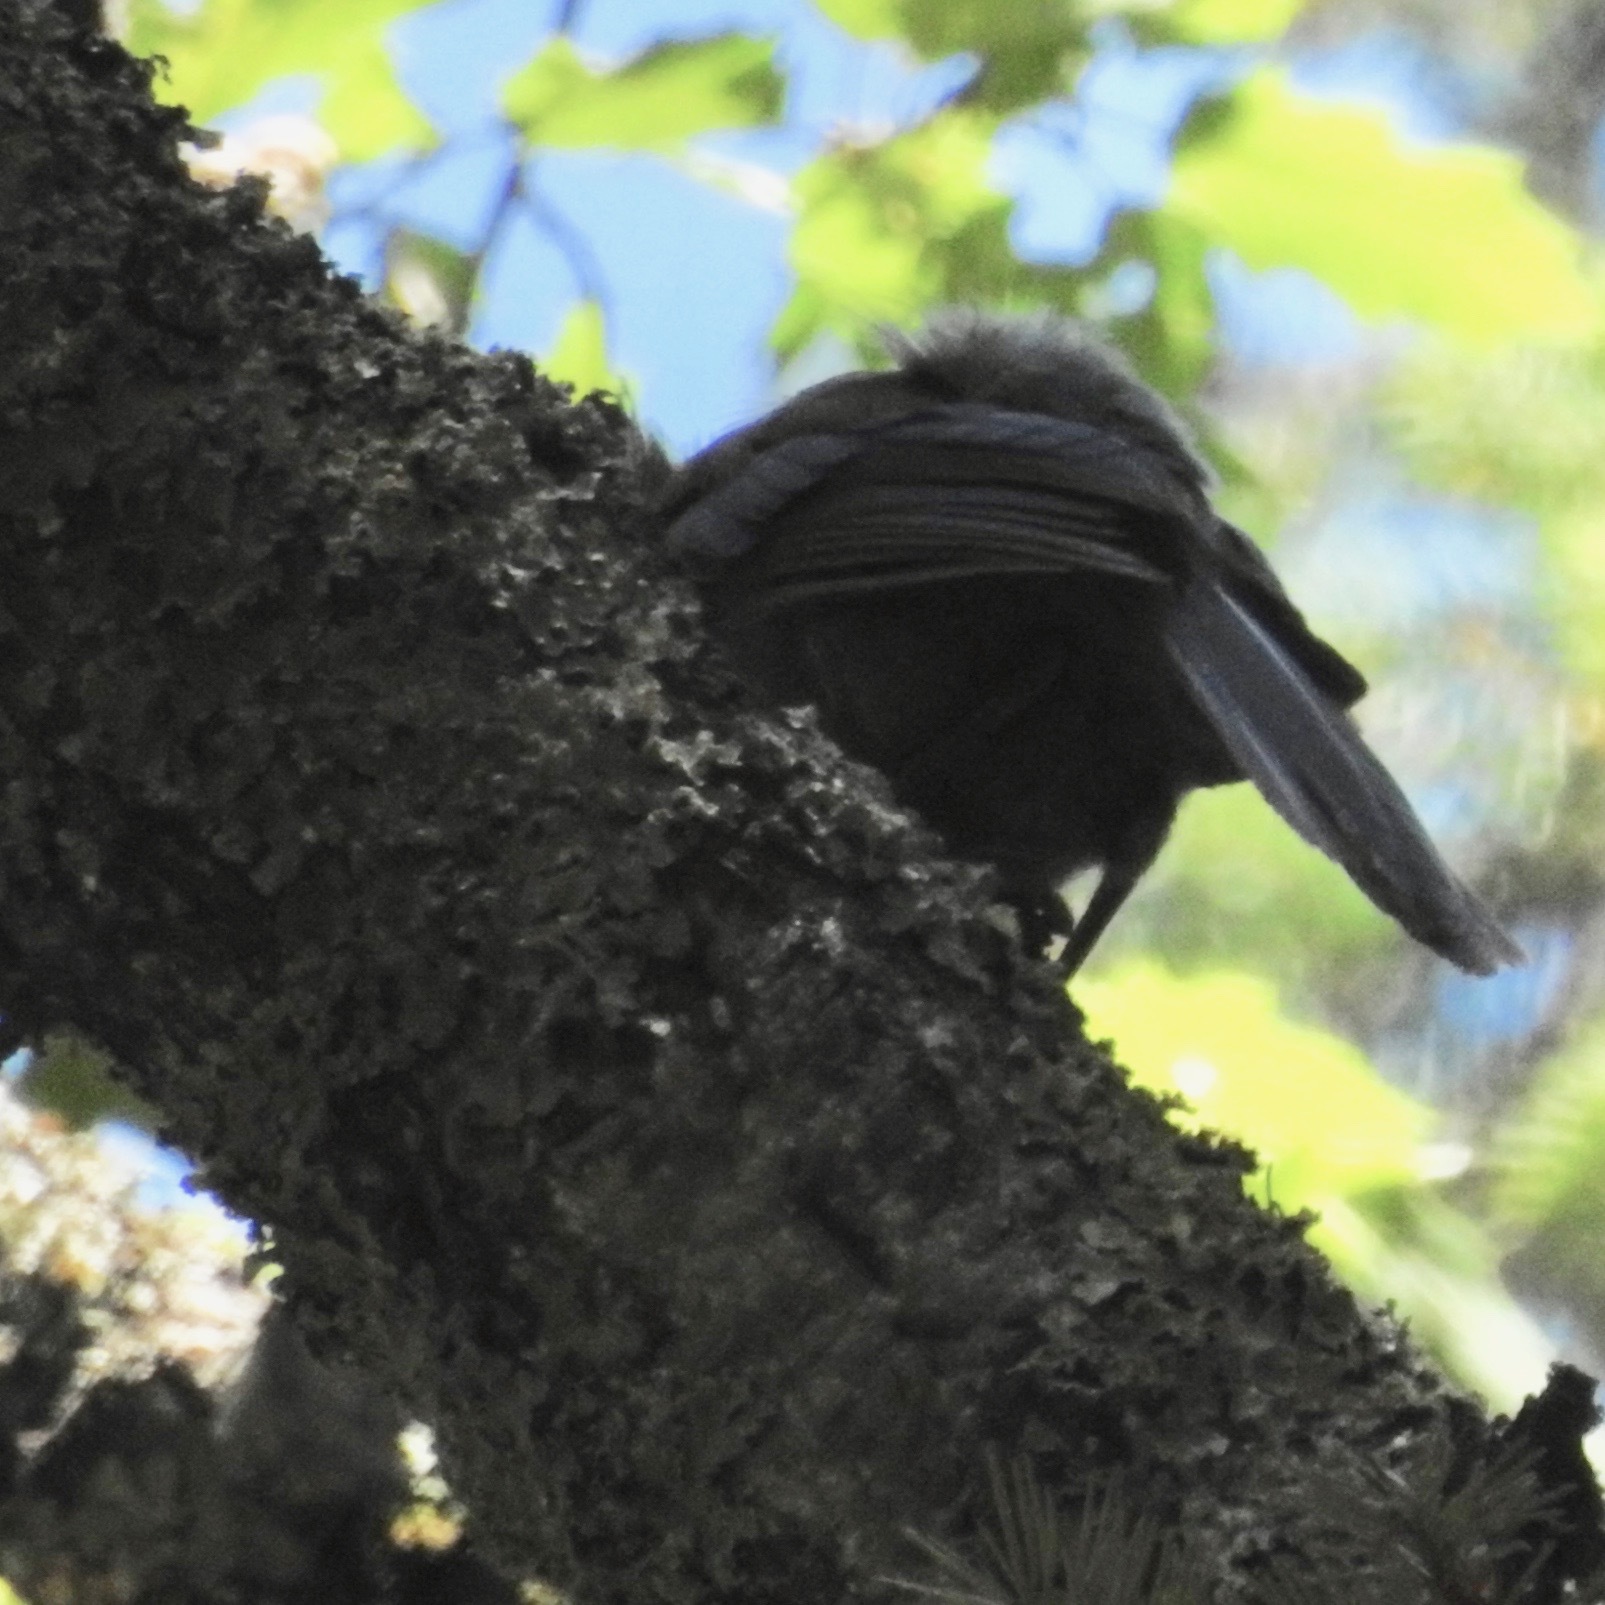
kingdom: Animalia
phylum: Chordata
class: Aves
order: Passeriformes
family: Corvidae
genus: Cyanocitta
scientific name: Cyanocitta stelleri
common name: Steller's jay
